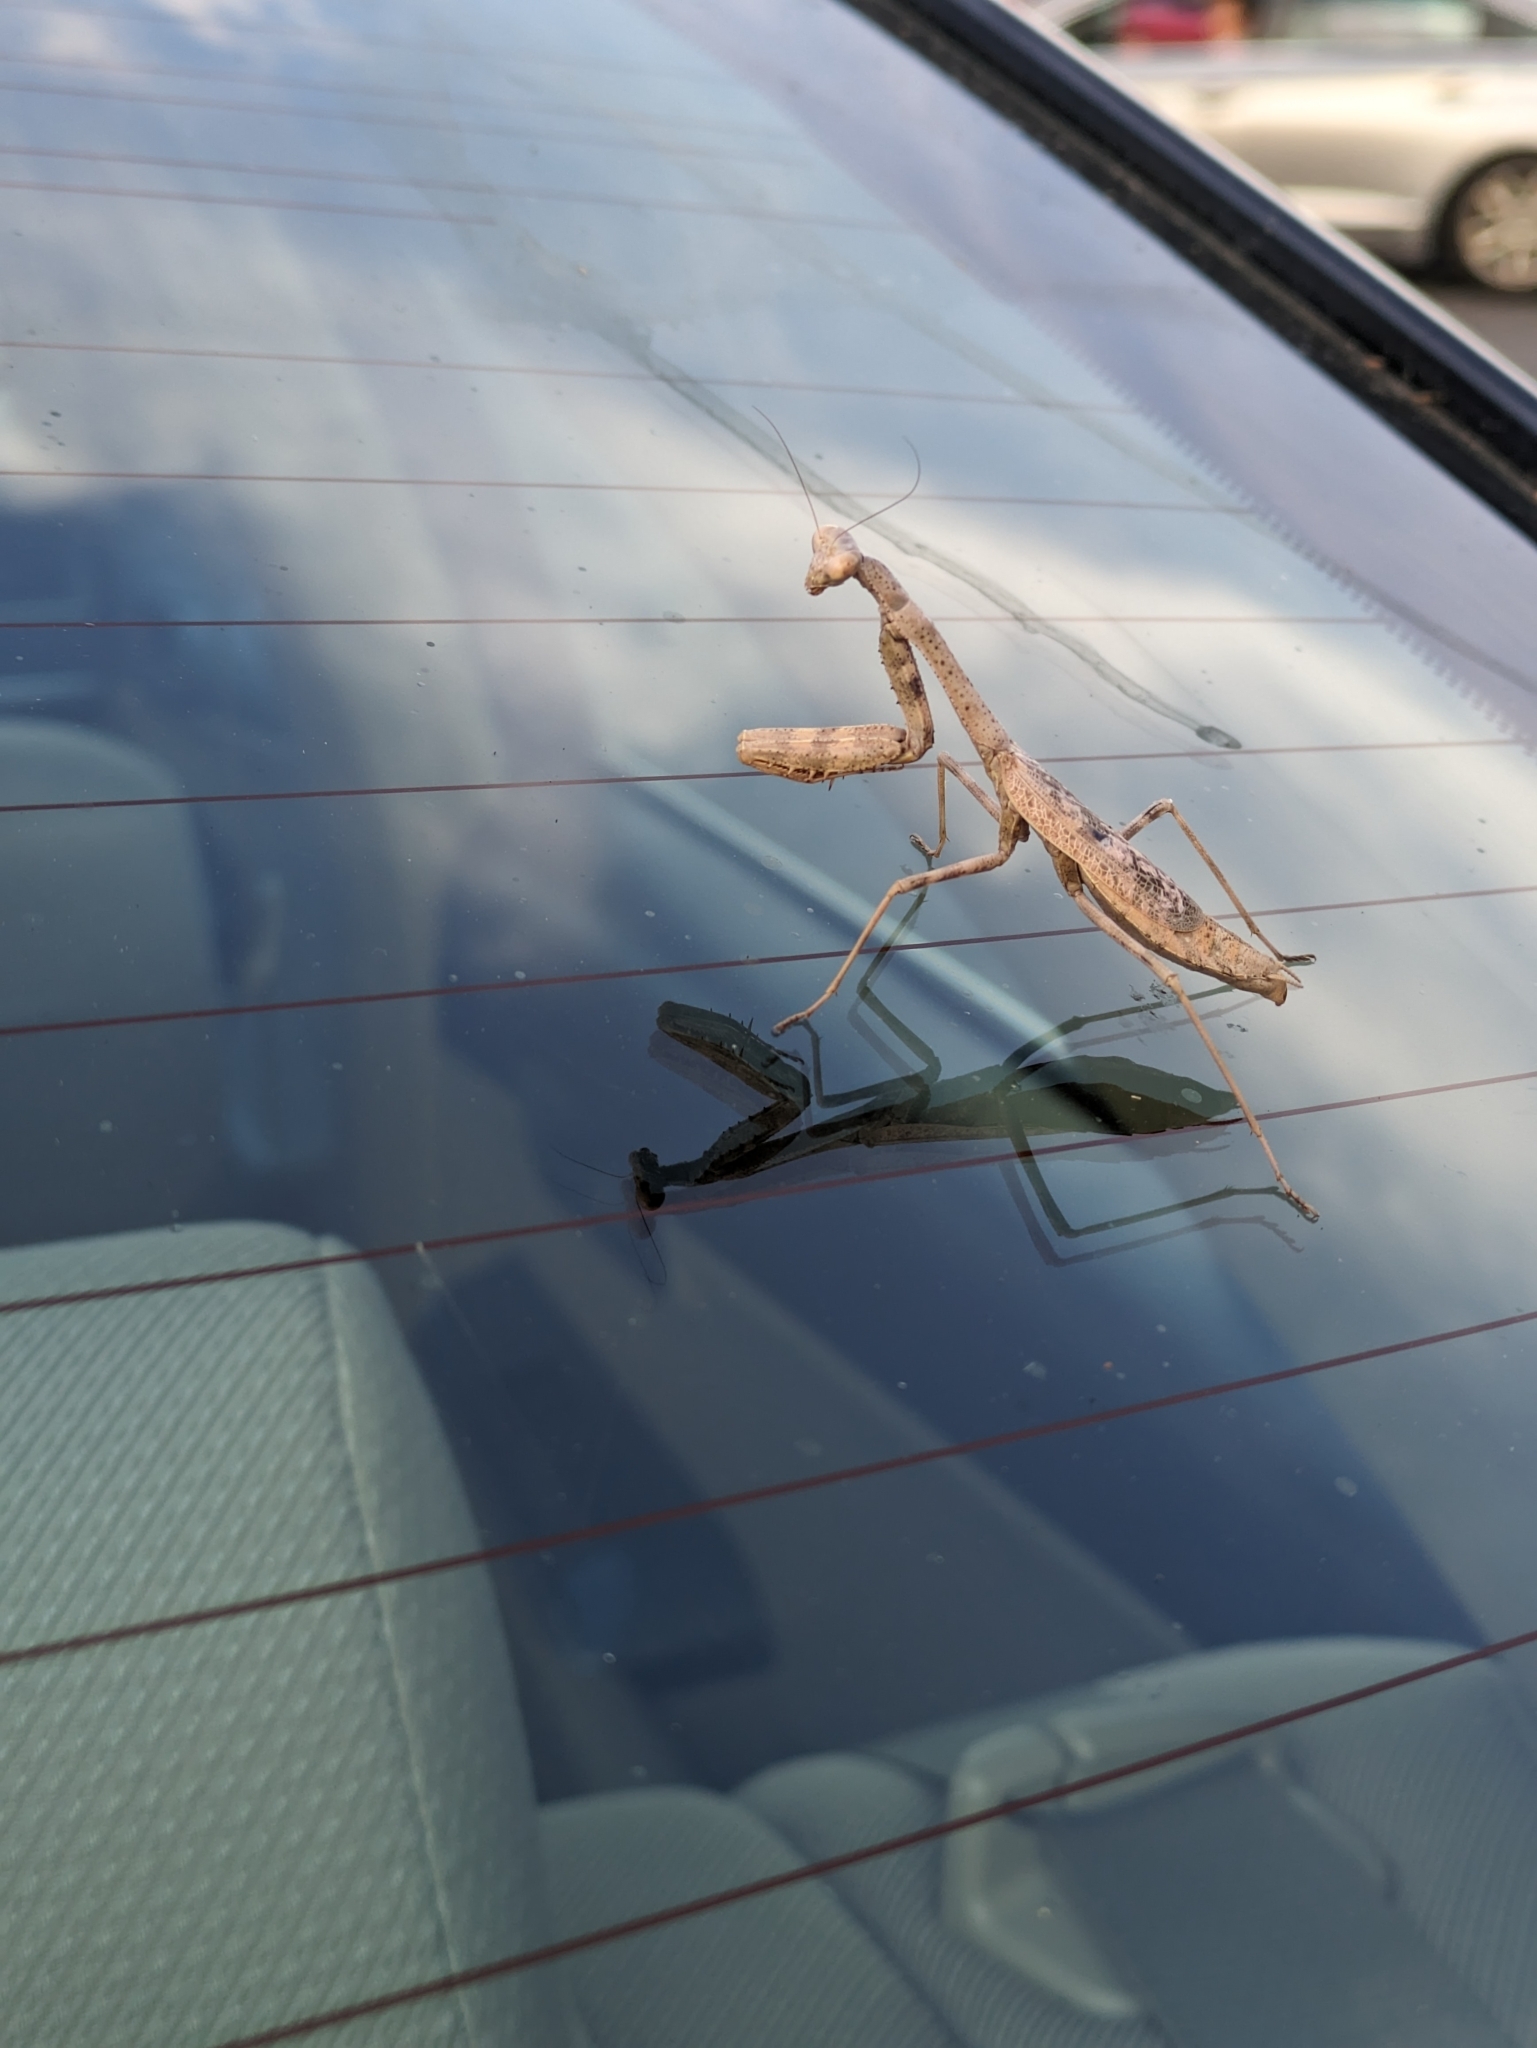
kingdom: Animalia
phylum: Arthropoda
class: Insecta
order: Mantodea
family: Mantidae
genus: Stagmomantis
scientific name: Stagmomantis carolina
